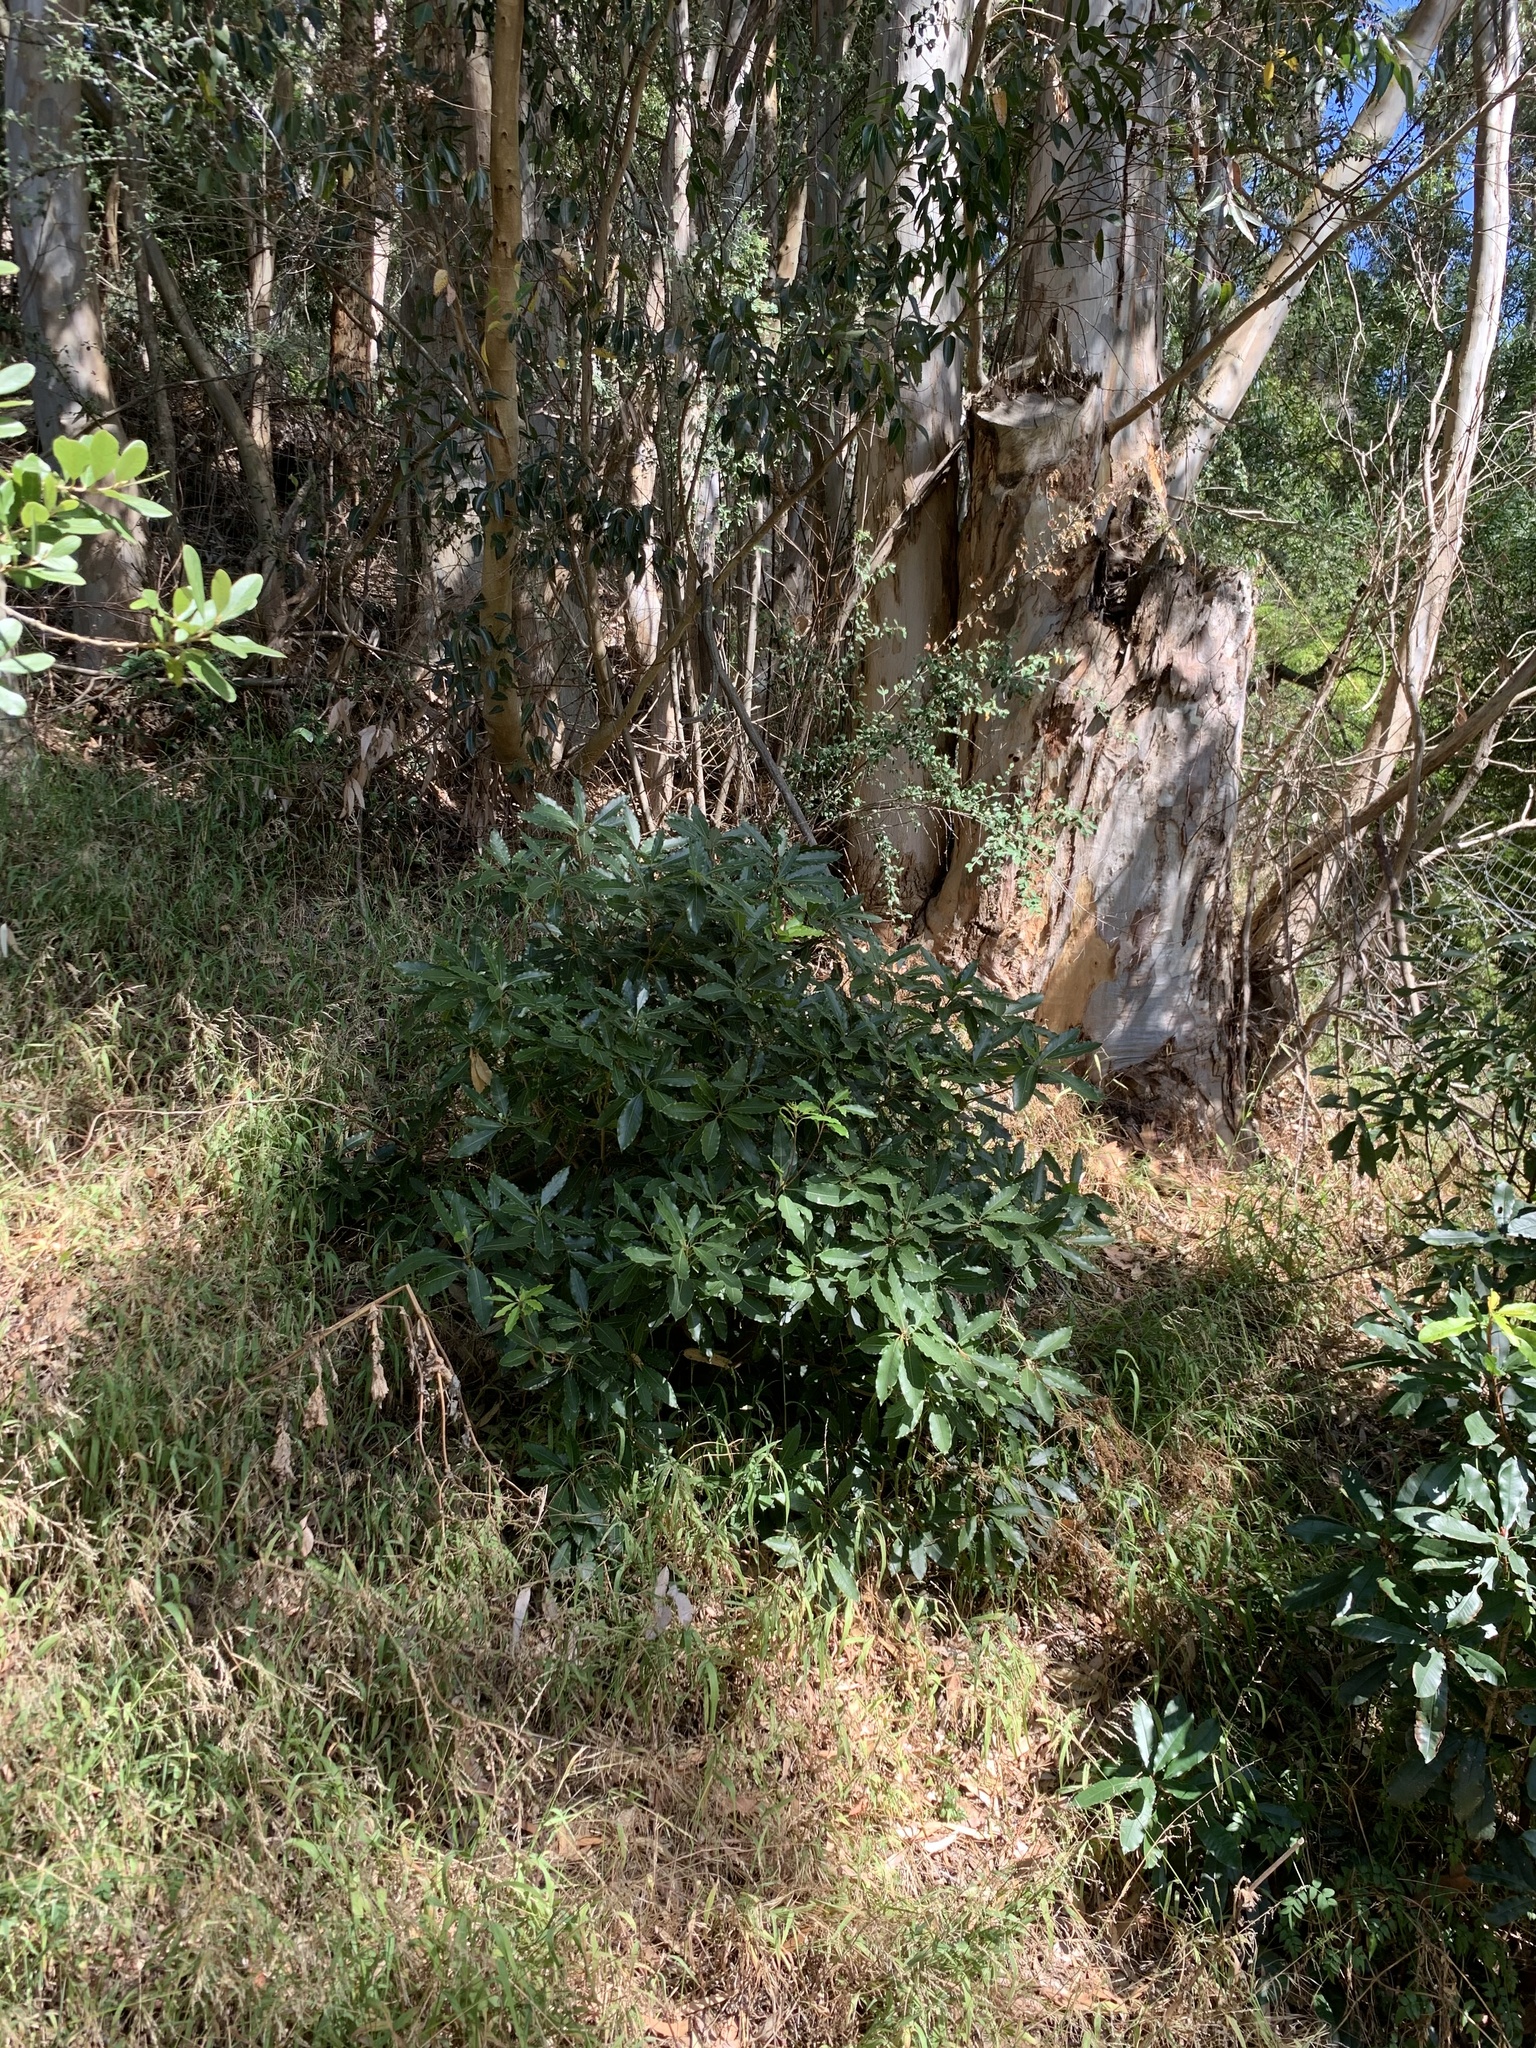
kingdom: Plantae
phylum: Tracheophyta
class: Magnoliopsida
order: Apiales
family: Pittosporaceae
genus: Pittosporum
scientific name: Pittosporum undulatum
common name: Australian cheesewood
